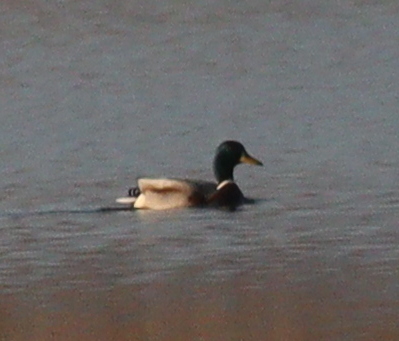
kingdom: Animalia
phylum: Chordata
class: Aves
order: Anseriformes
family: Anatidae
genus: Anas
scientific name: Anas platyrhynchos
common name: Mallard
